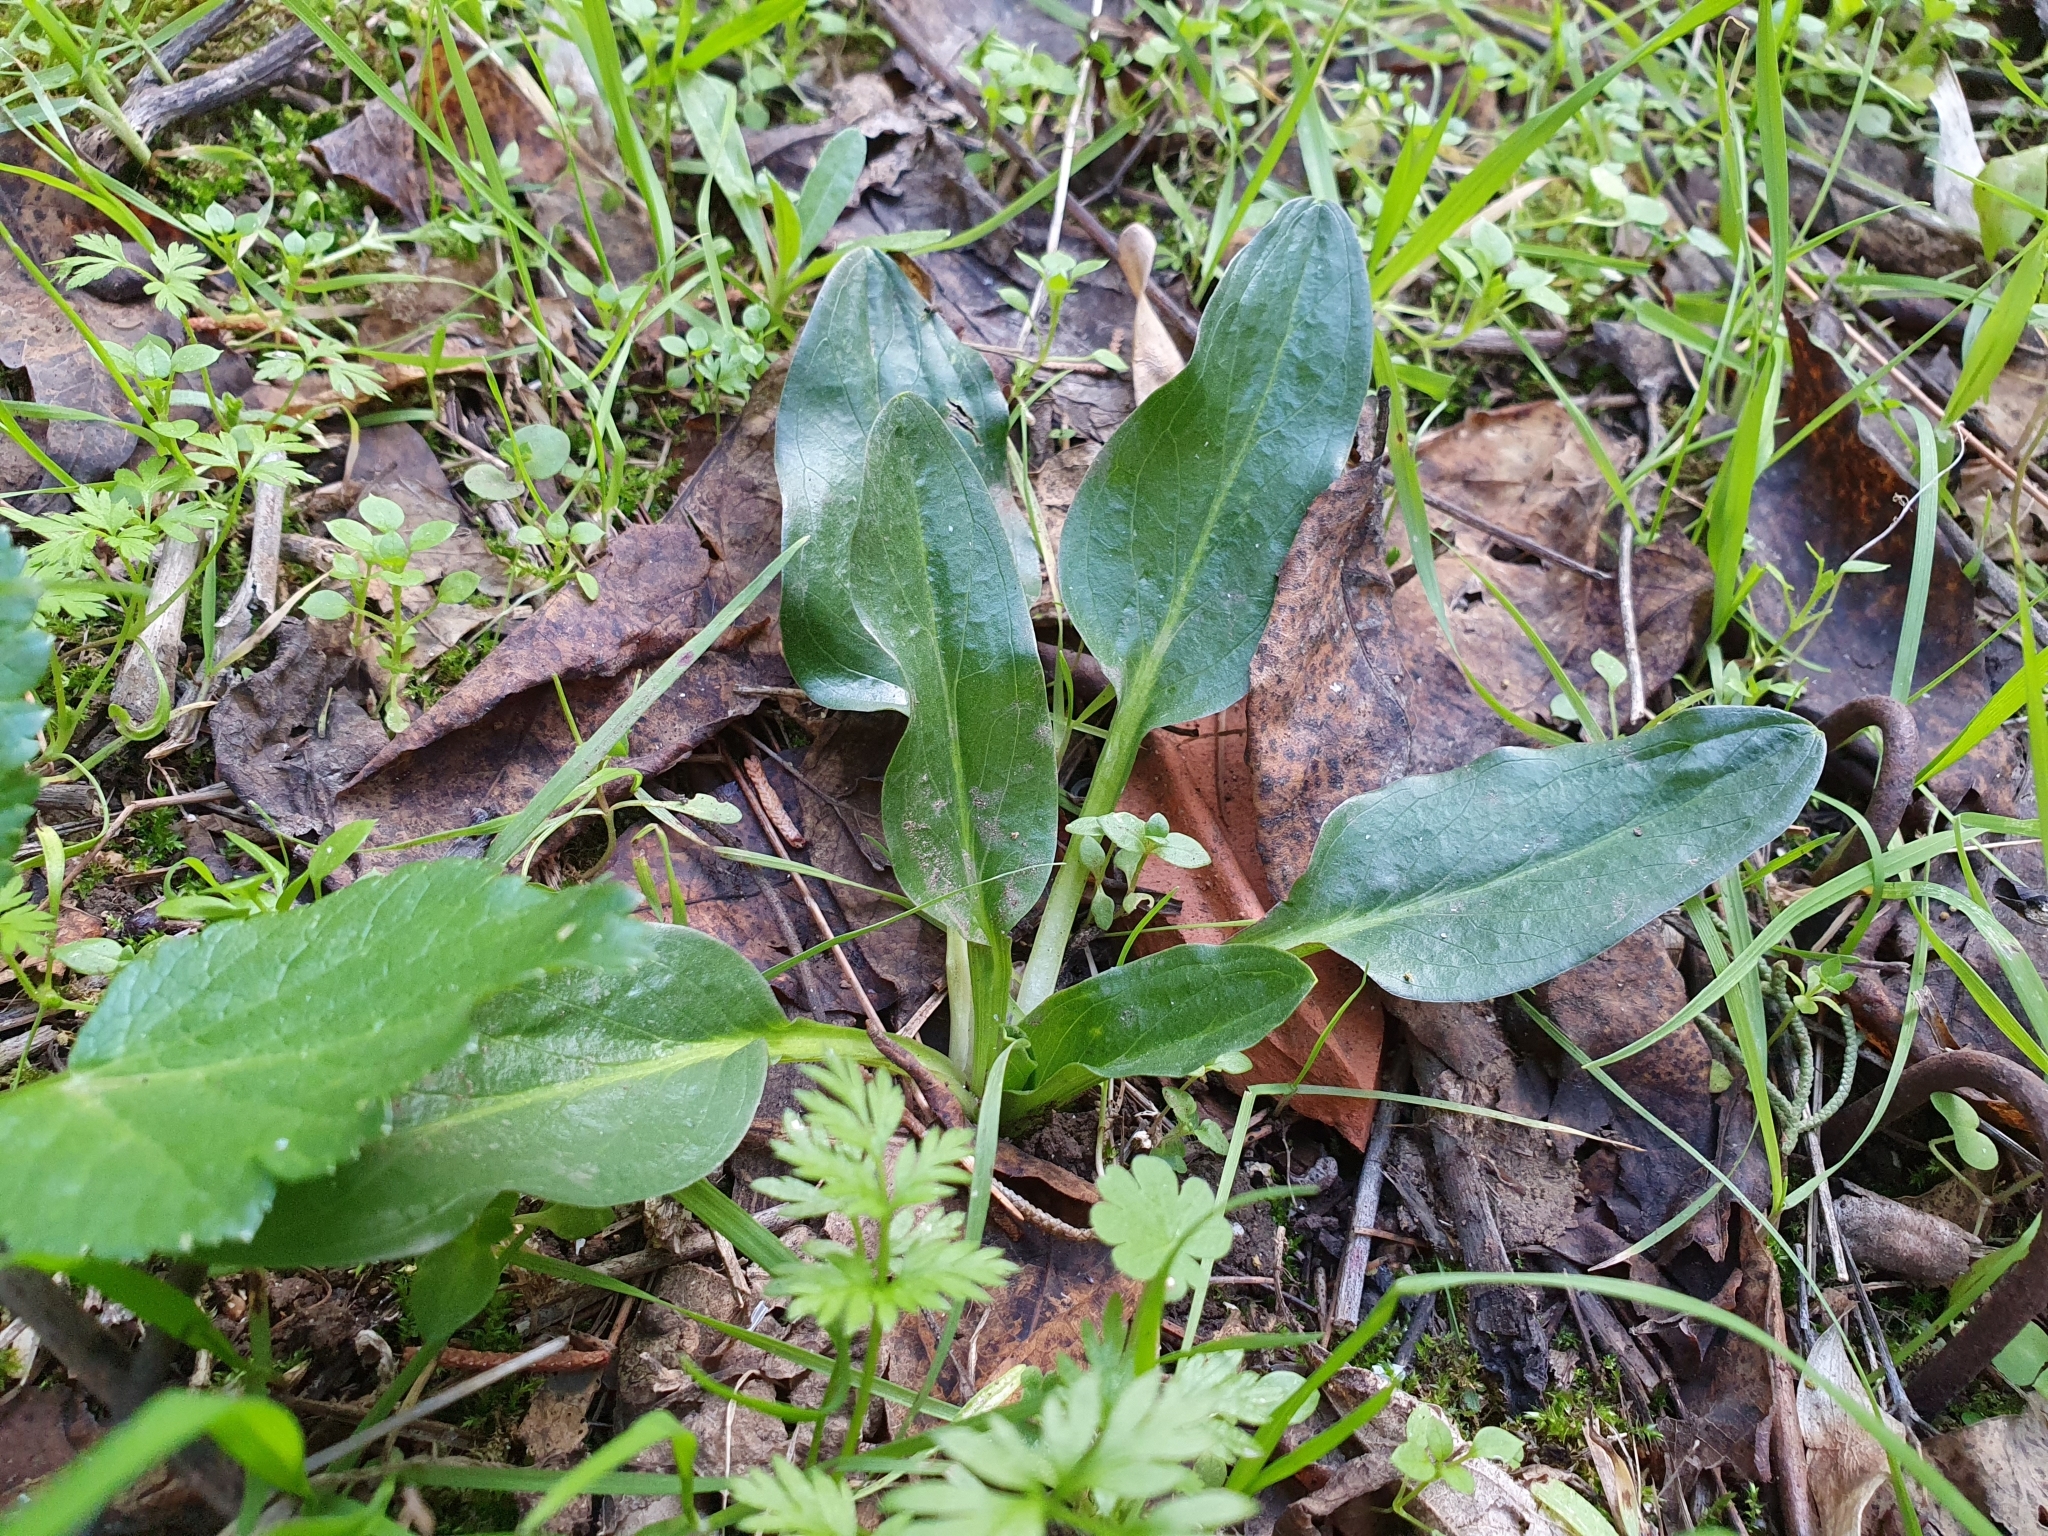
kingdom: Plantae
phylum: Tracheophyta
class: Liliopsida
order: Alismatales
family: Araceae
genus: Biarum
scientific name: Biarum dispar
